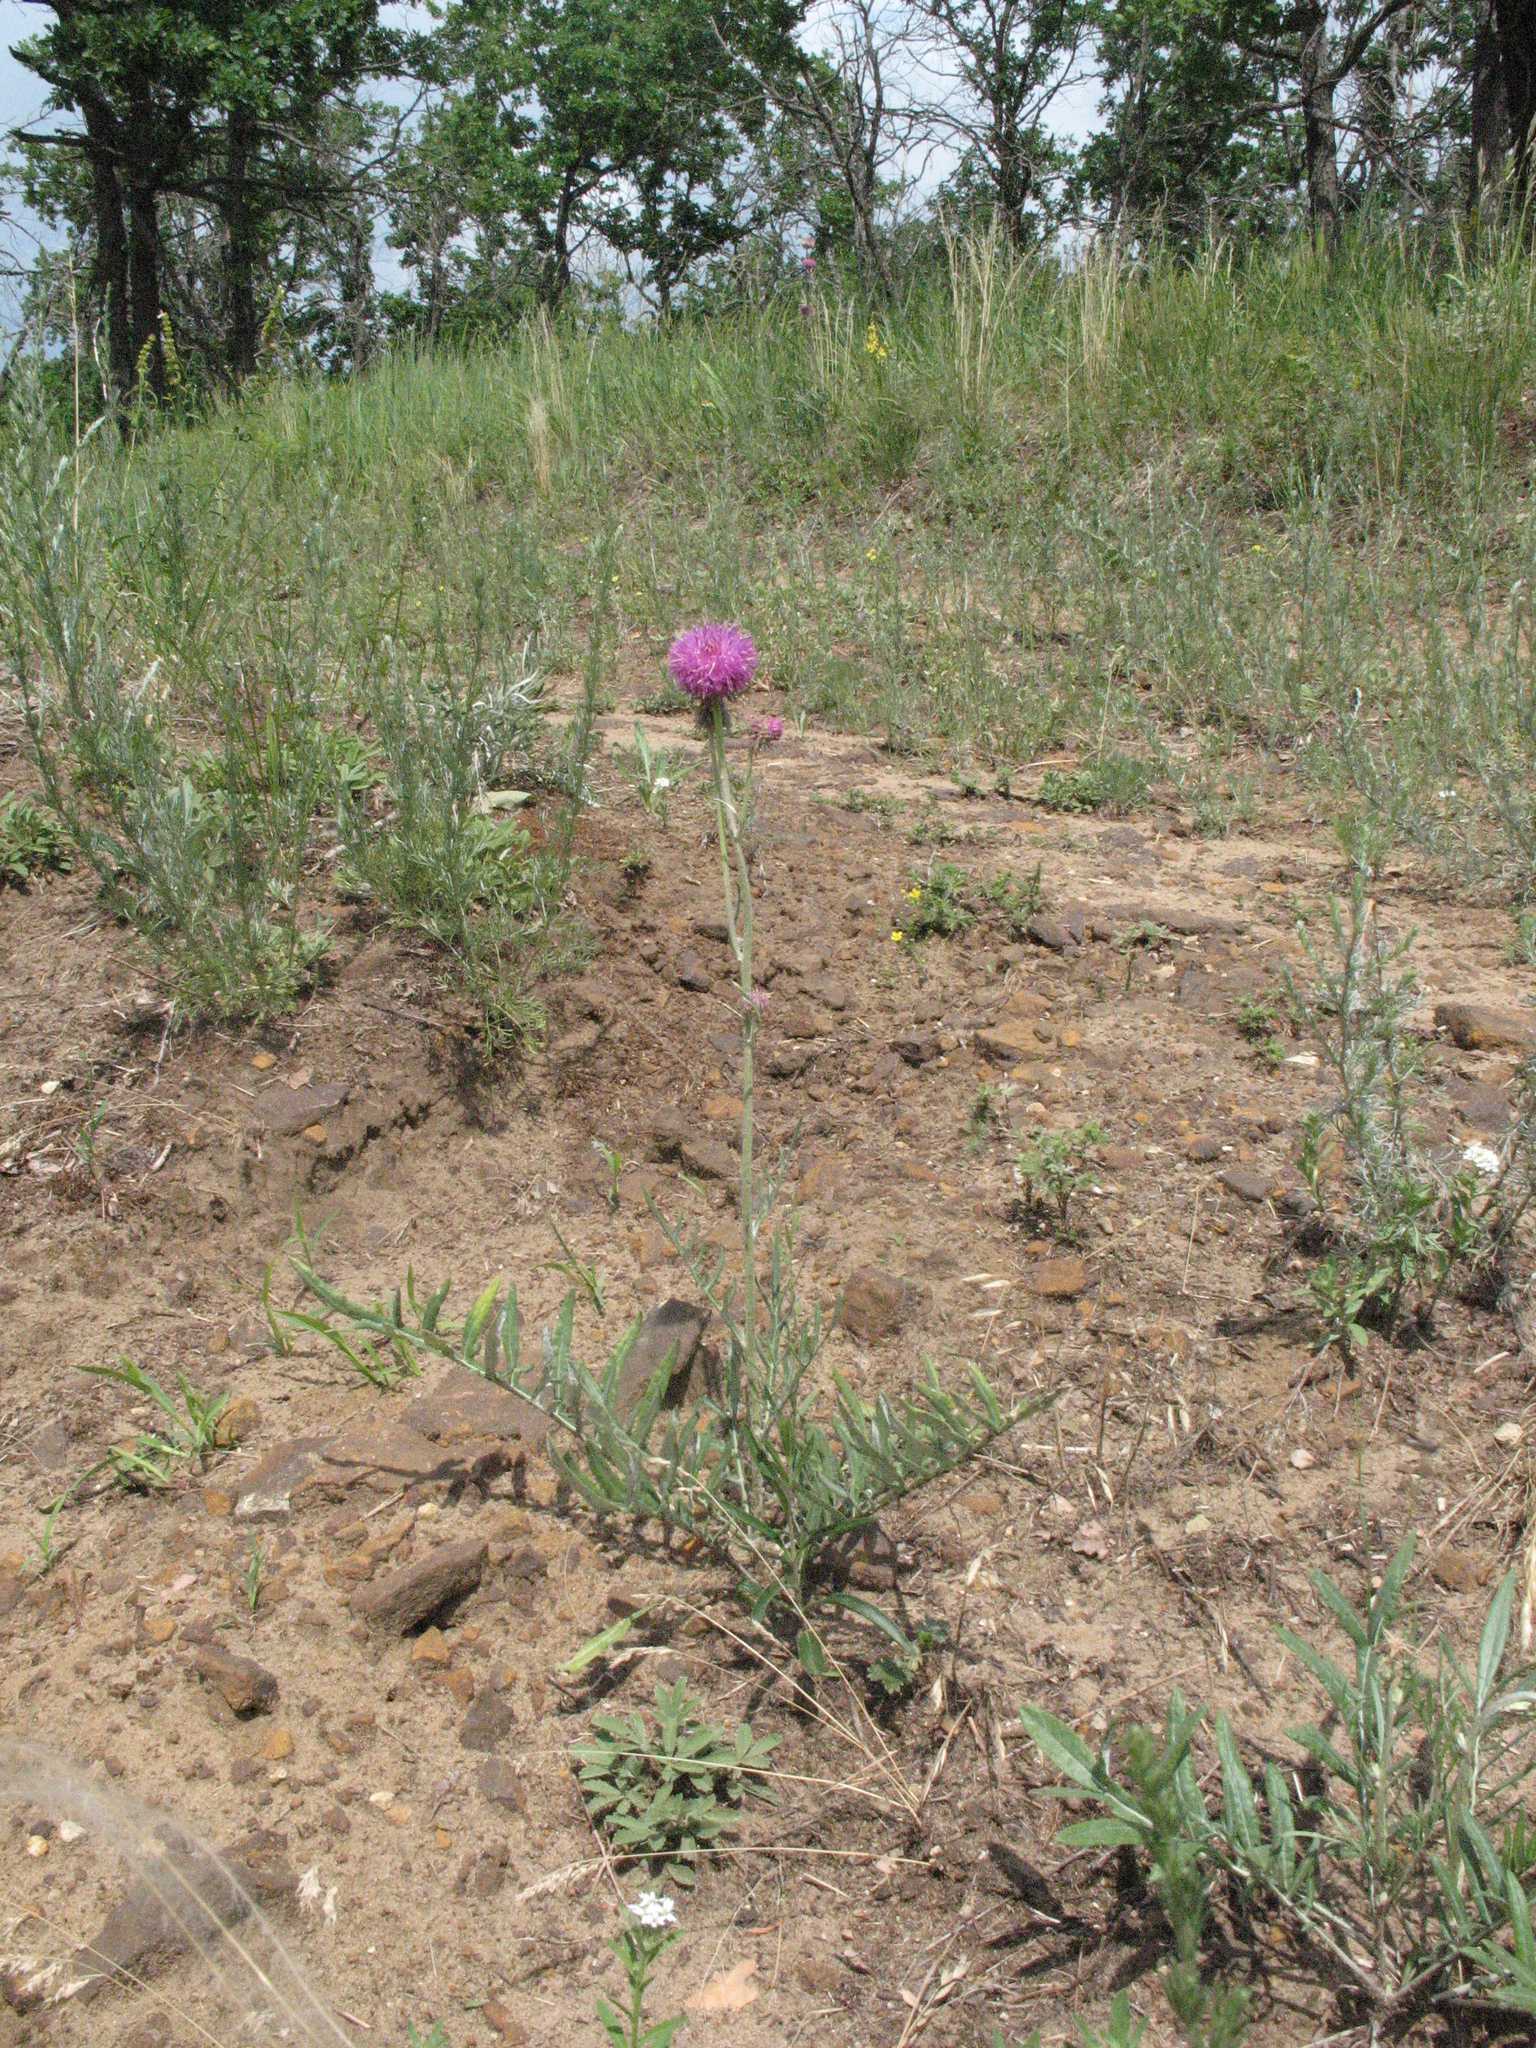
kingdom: Plantae
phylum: Tracheophyta
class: Magnoliopsida
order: Asterales
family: Asteraceae
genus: Jurinea
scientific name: Jurinea cyanoides
